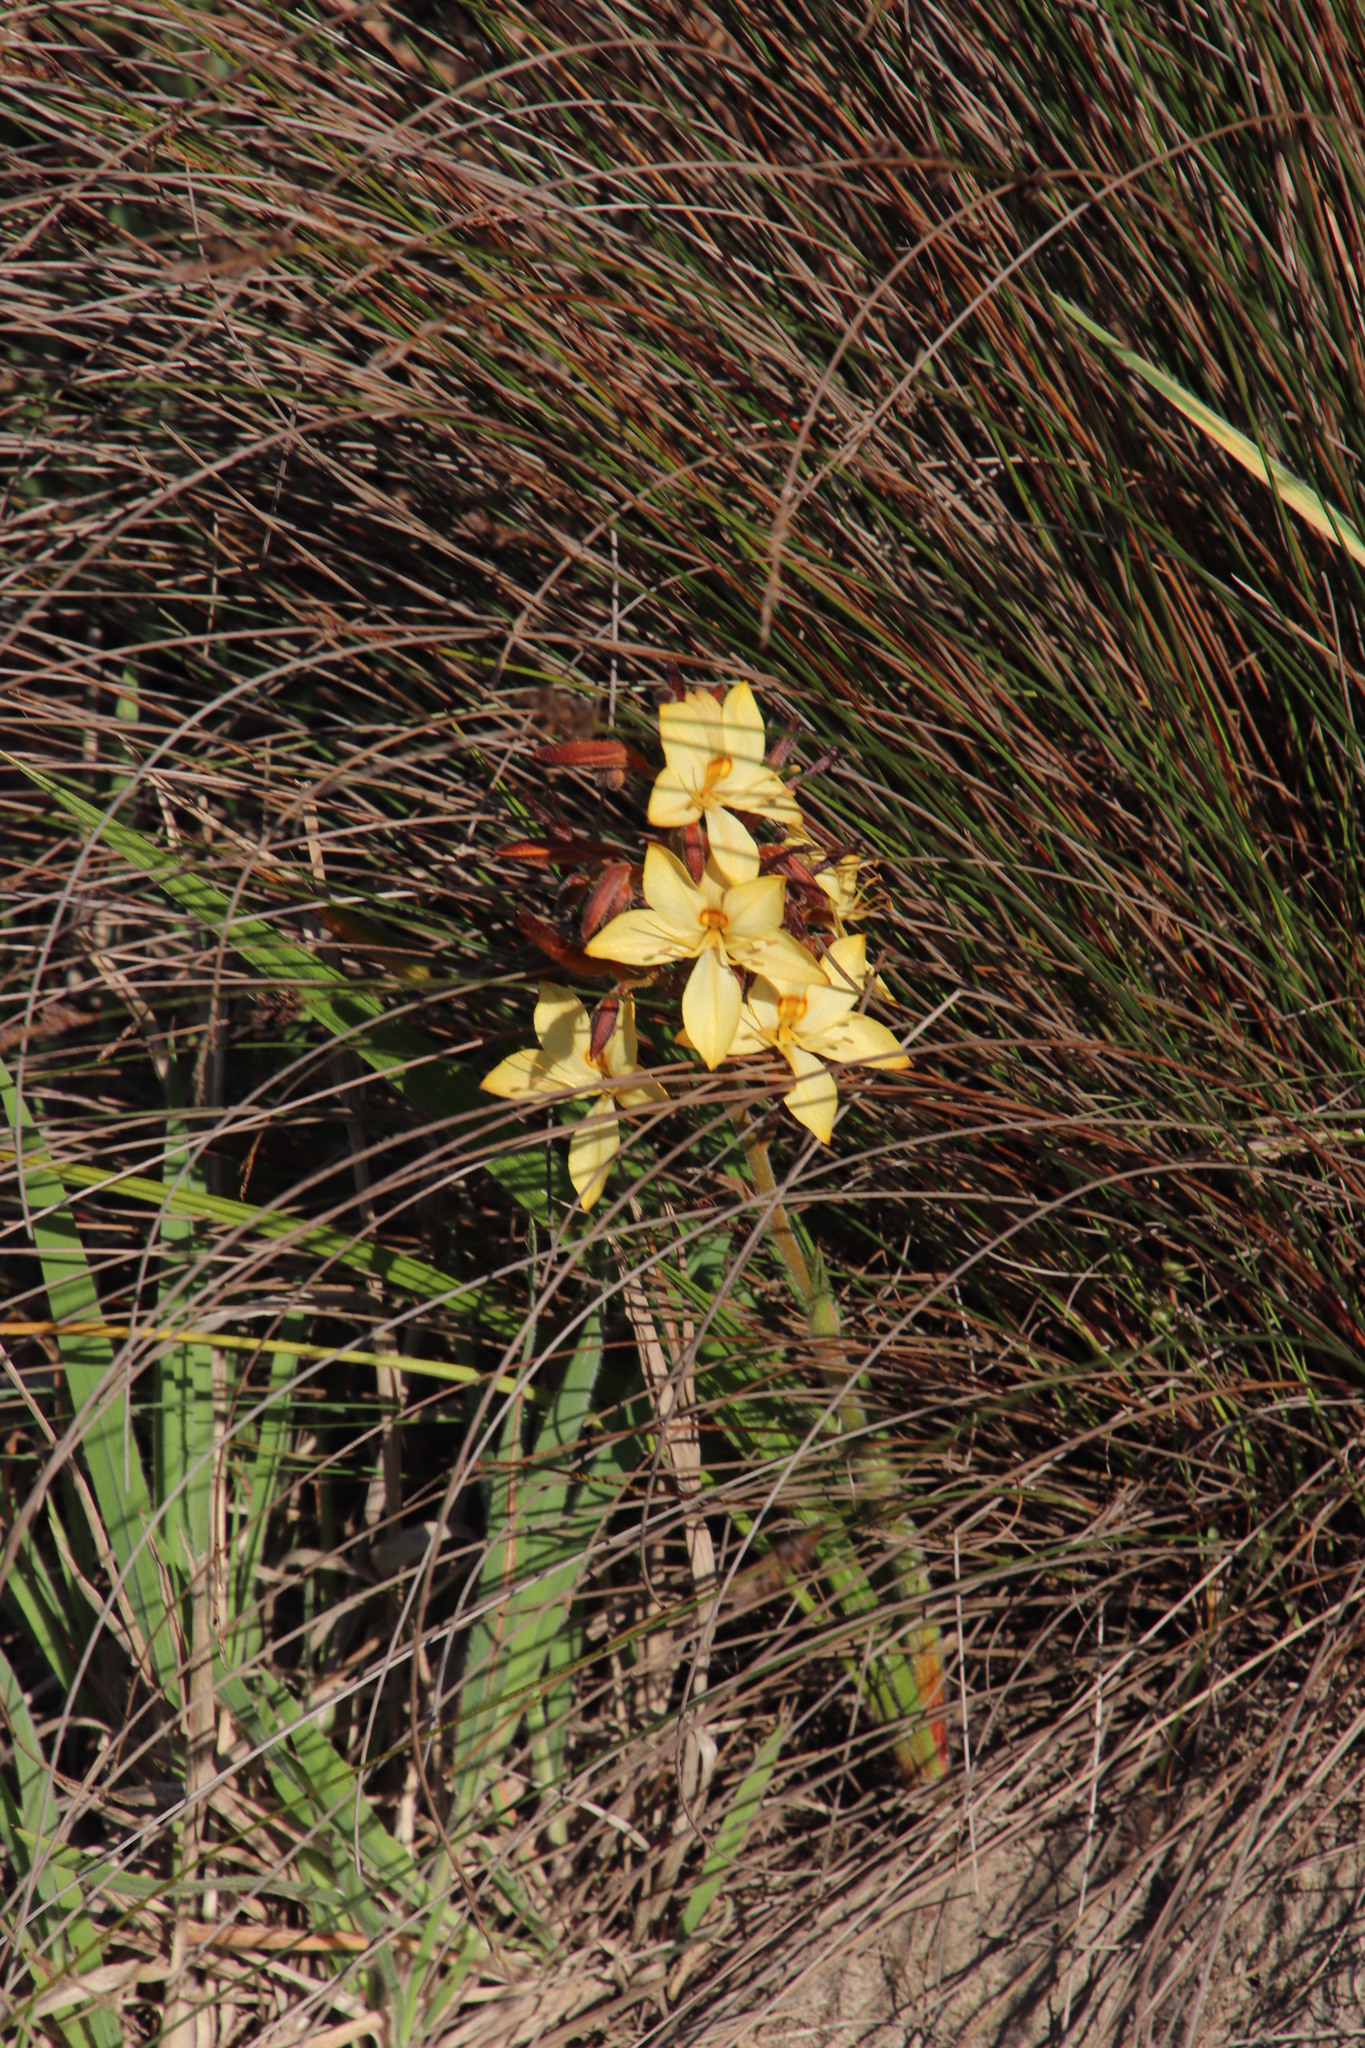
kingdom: Plantae
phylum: Tracheophyta
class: Liliopsida
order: Commelinales
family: Haemodoraceae
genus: Wachendorfia
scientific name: Wachendorfia paniculata
